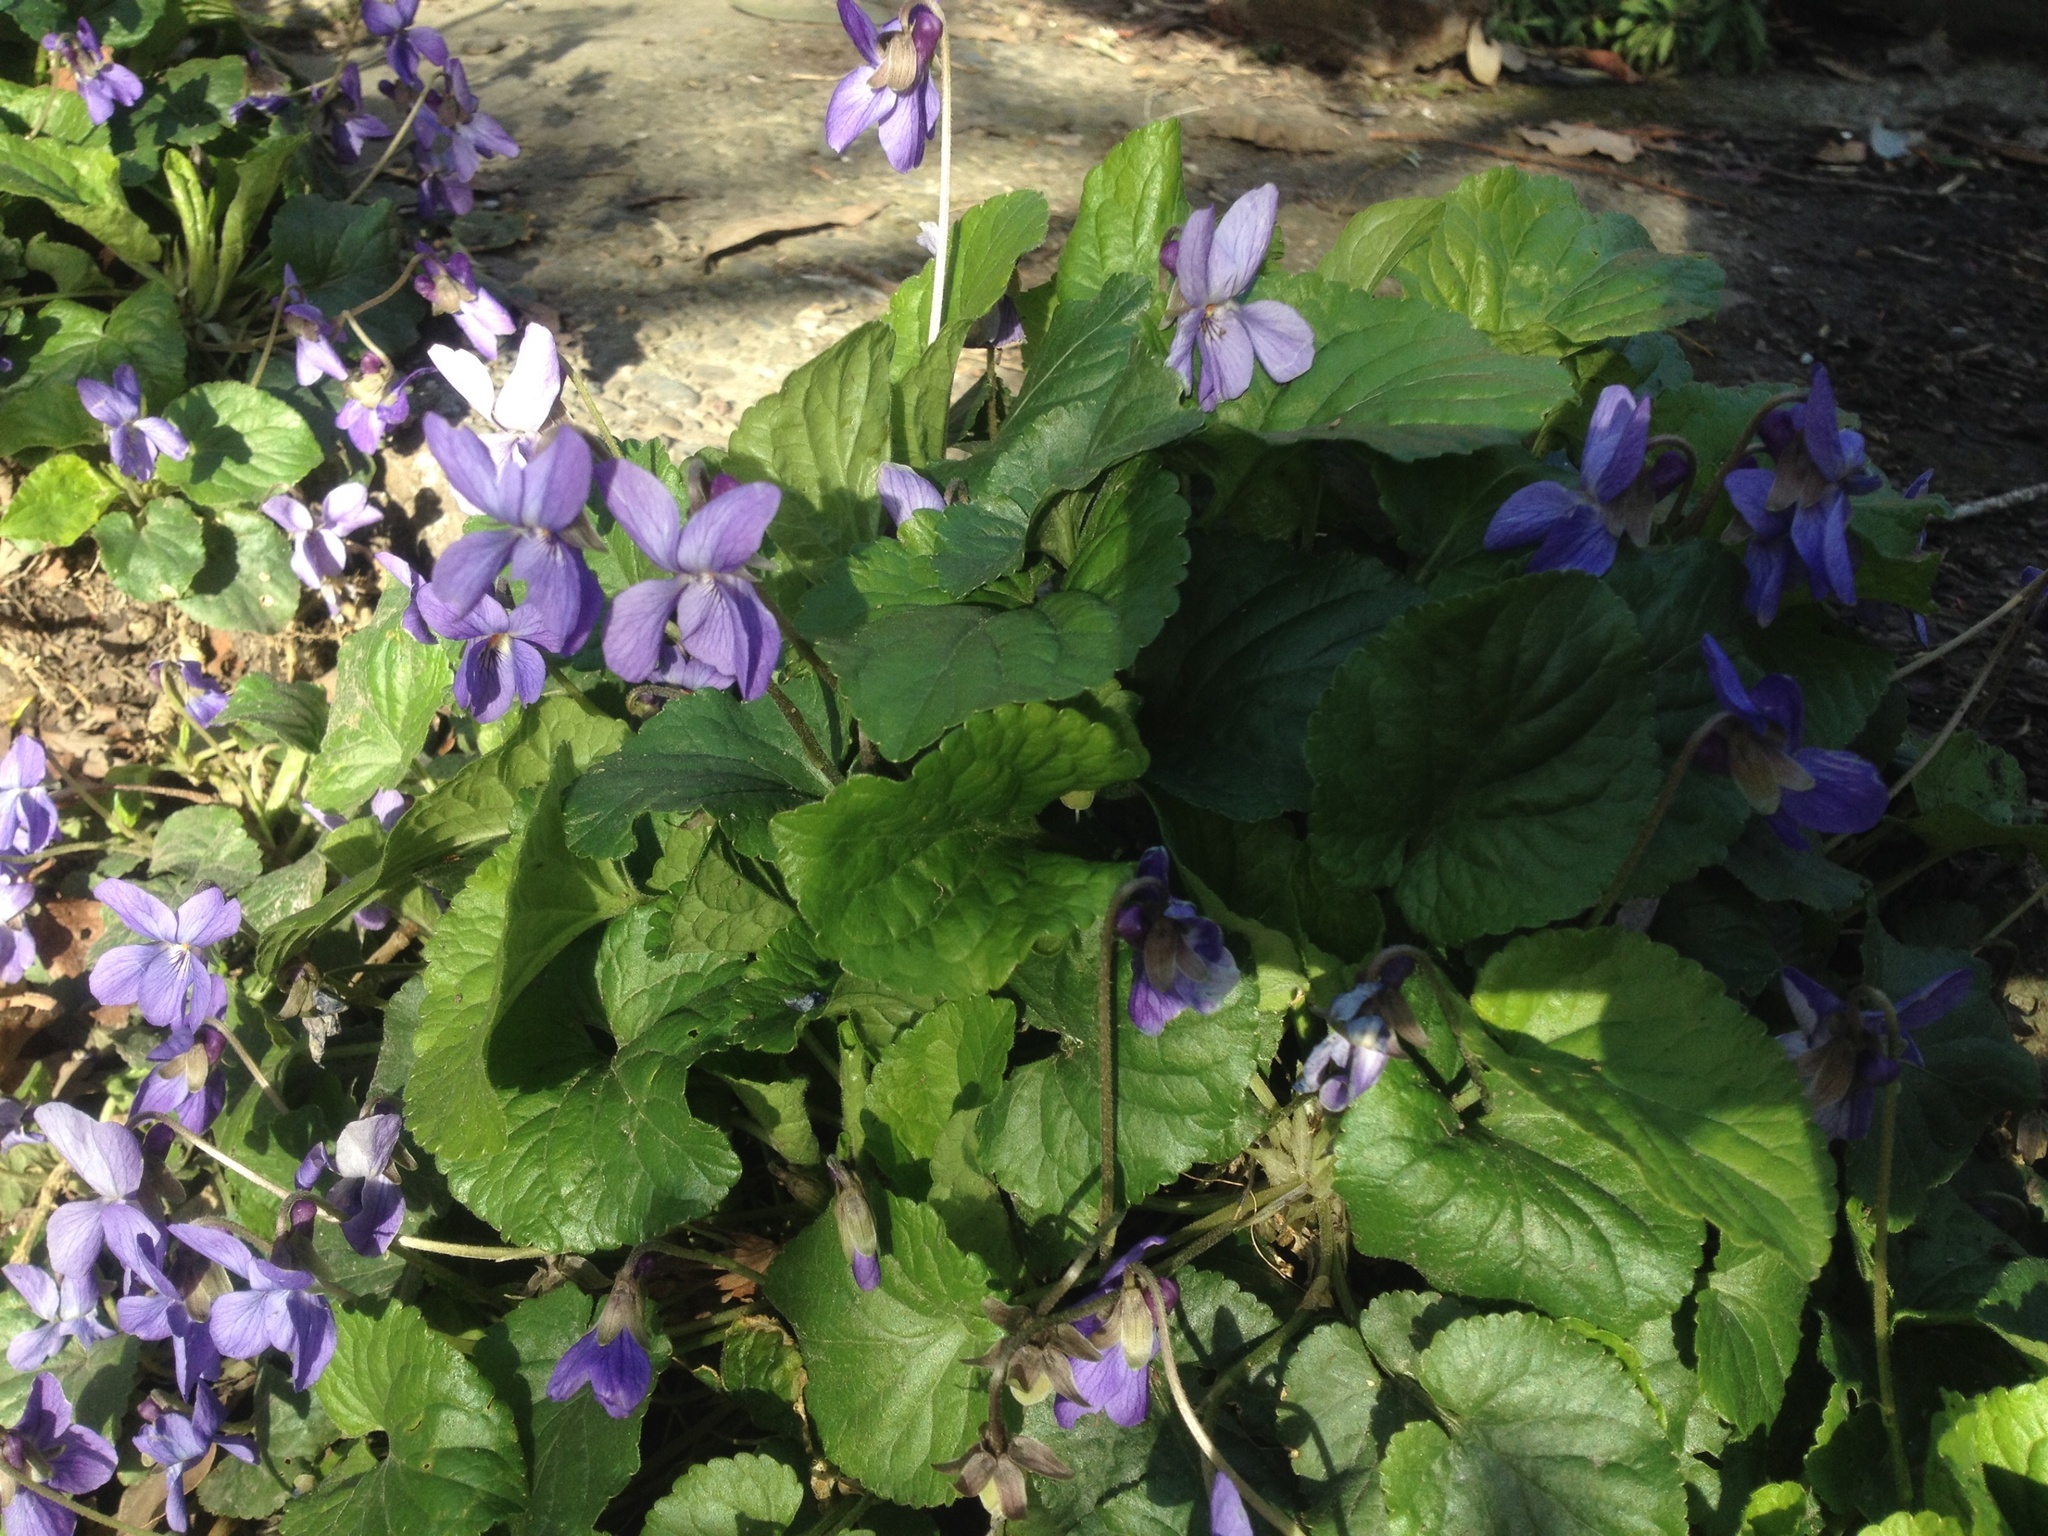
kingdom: Plantae
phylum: Tracheophyta
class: Magnoliopsida
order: Malpighiales
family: Violaceae
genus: Viola
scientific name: Viola odorata
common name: Sweet violet
